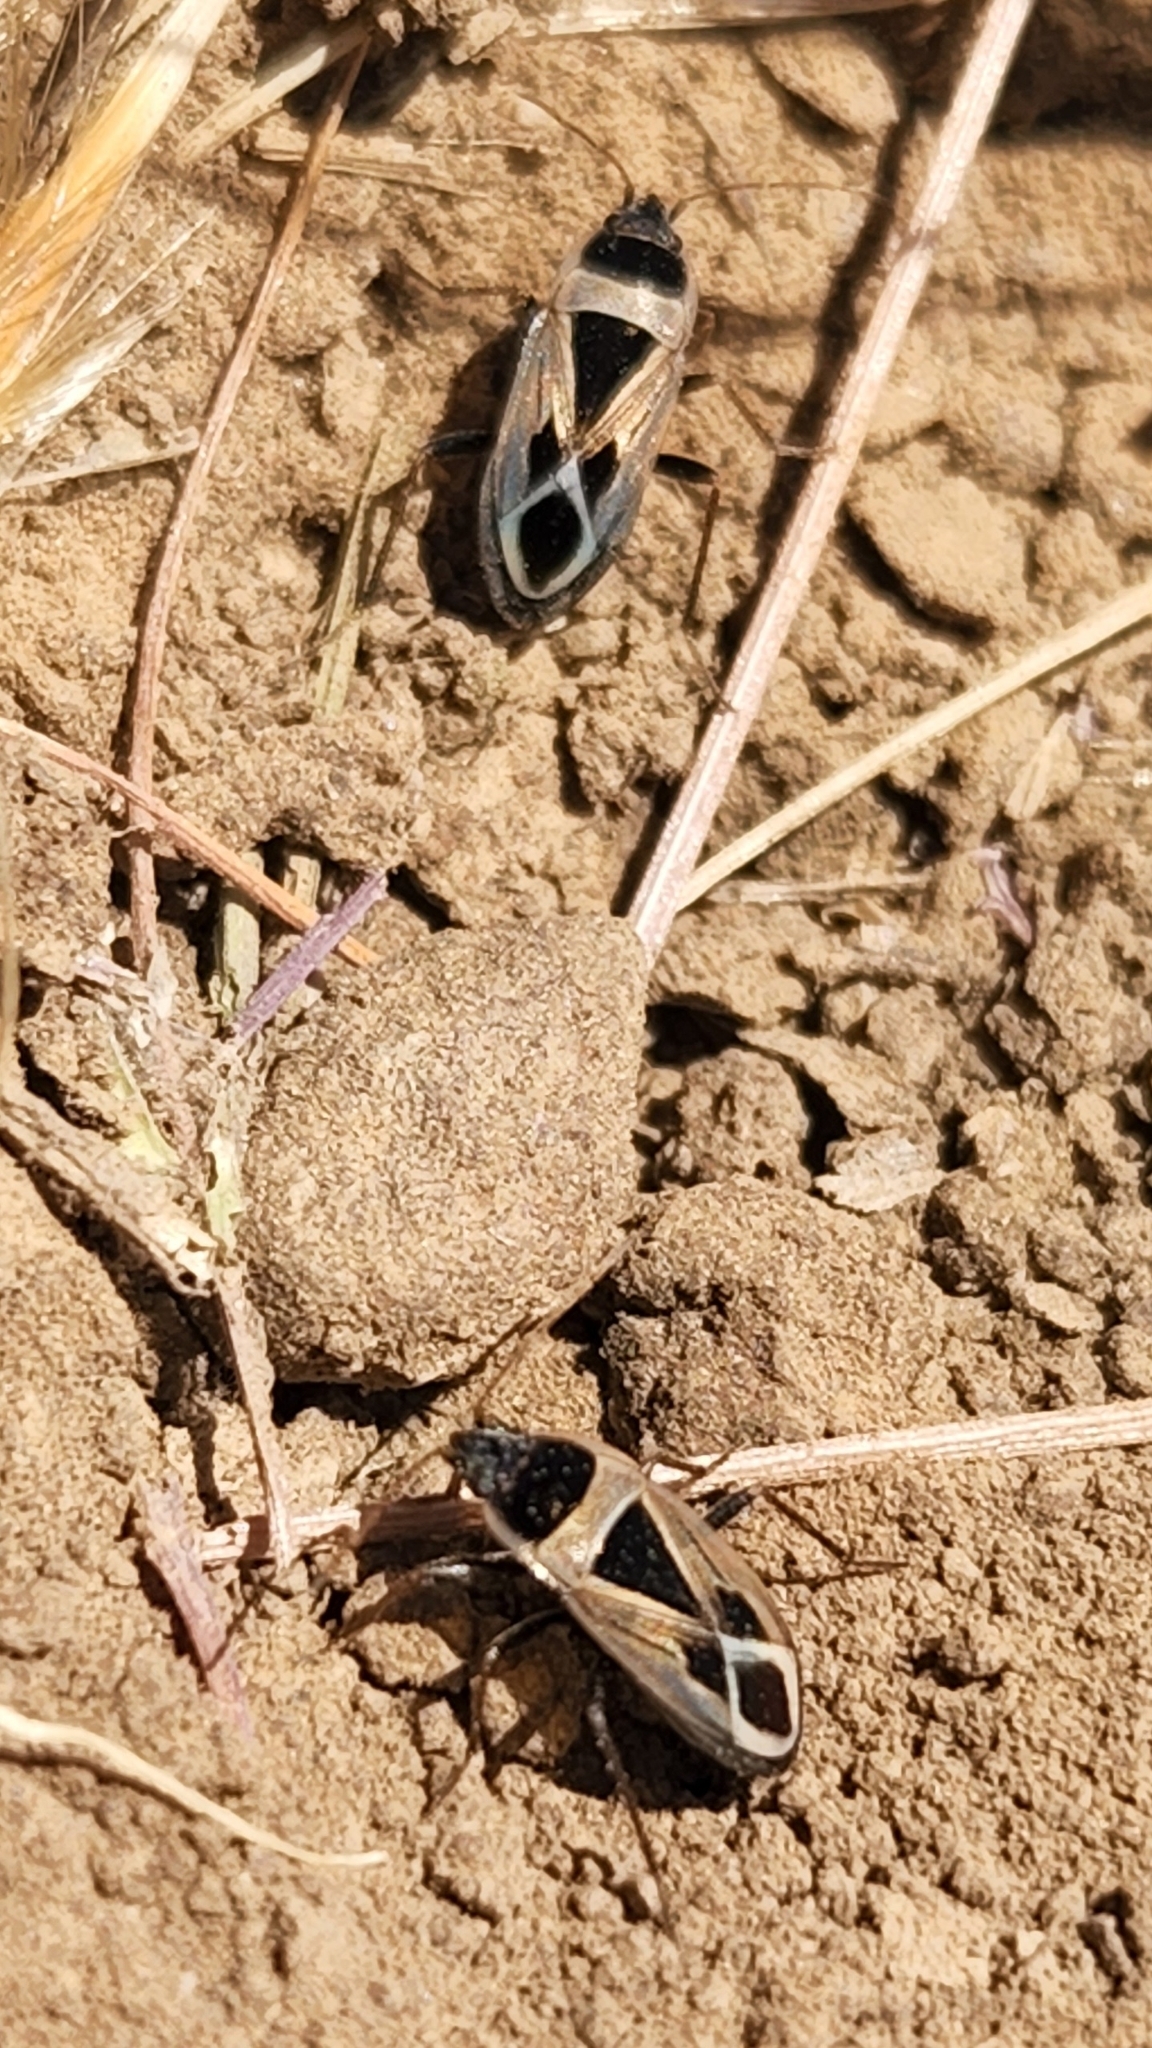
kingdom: Animalia
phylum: Arthropoda
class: Insecta
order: Hemiptera
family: Rhyparochromidae
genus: Xanthochilus
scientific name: Xanthochilus saturnius
